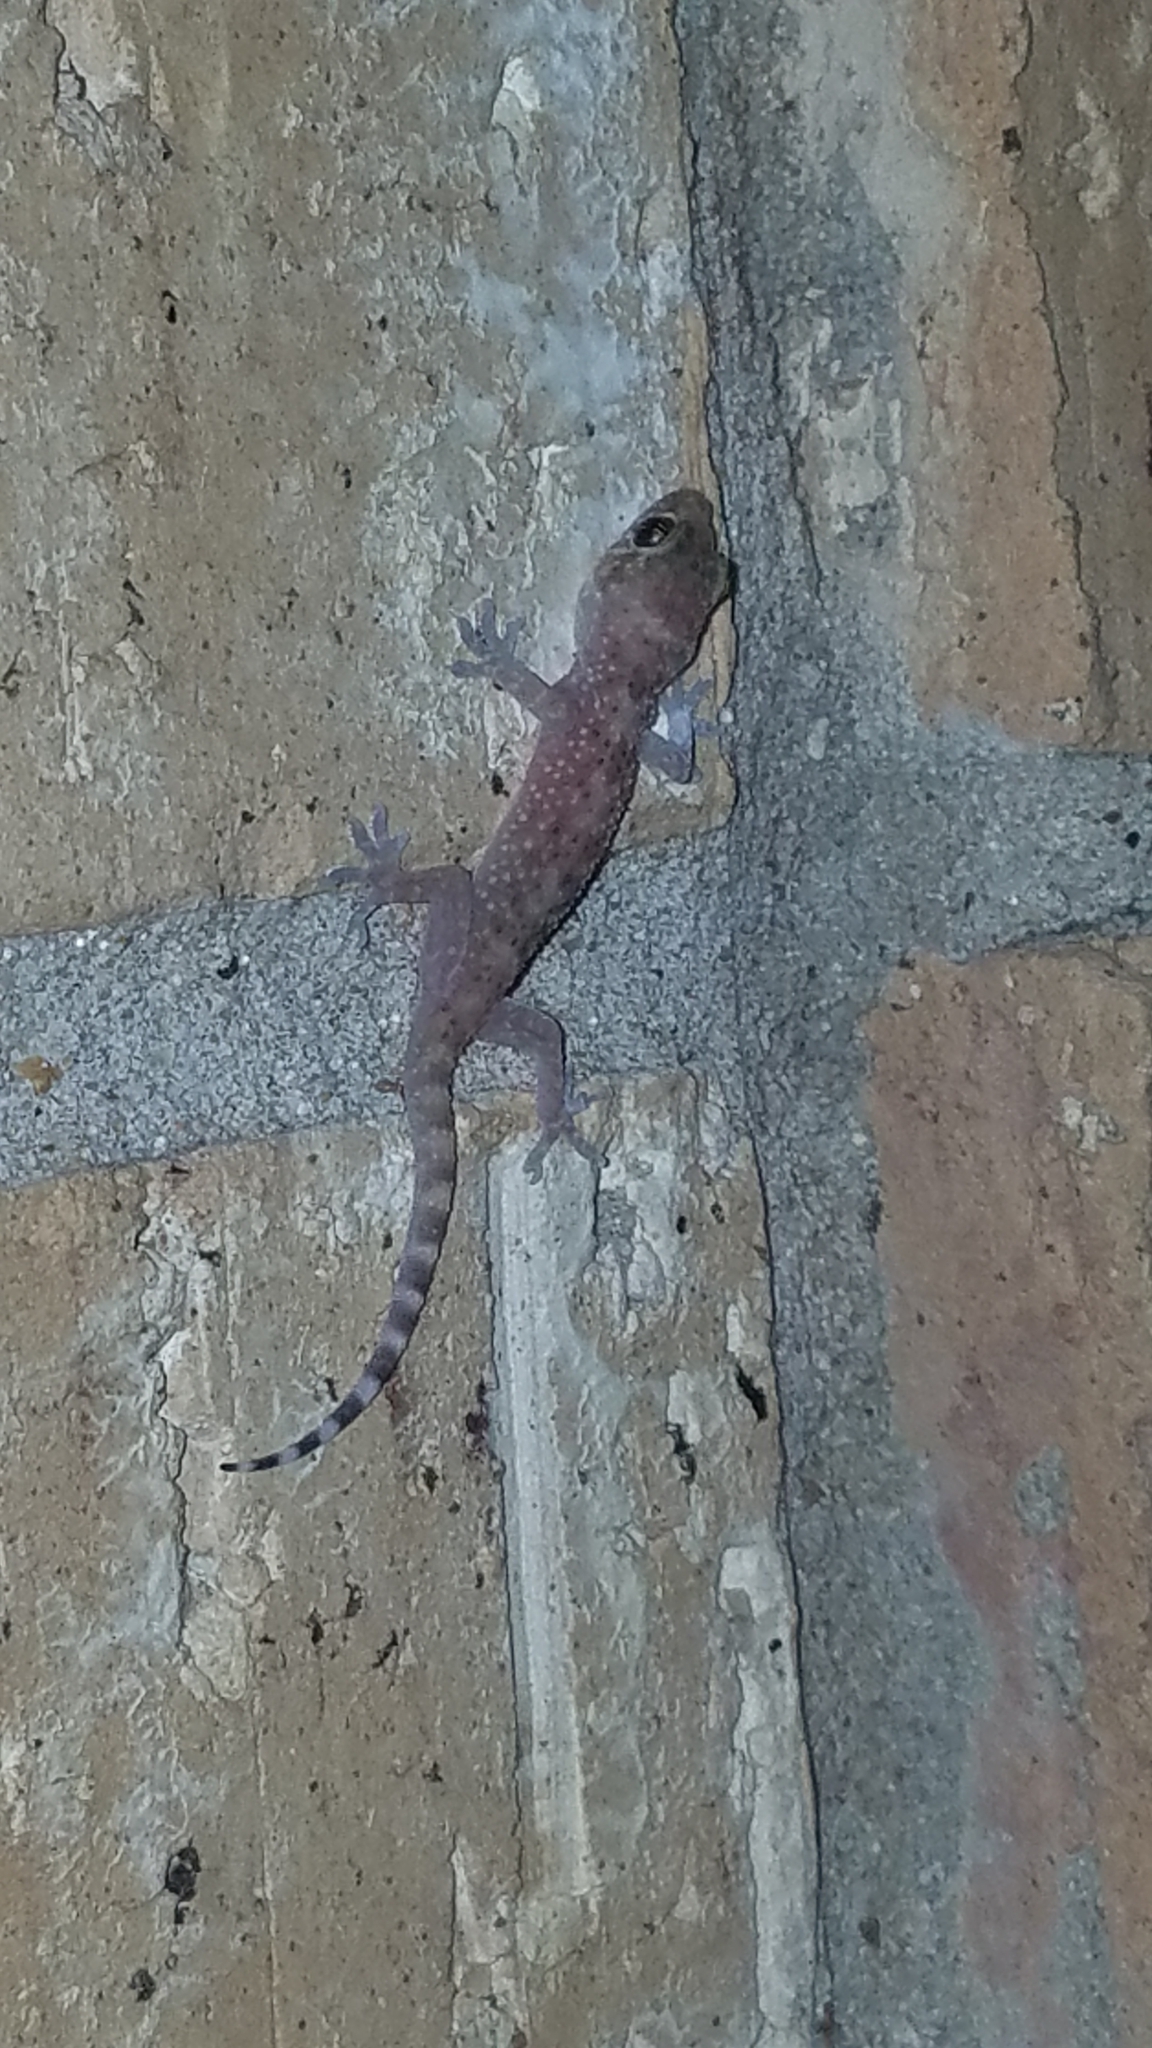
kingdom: Animalia
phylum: Chordata
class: Squamata
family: Gekkonidae
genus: Hemidactylus
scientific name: Hemidactylus turcicus
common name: Turkish gecko
